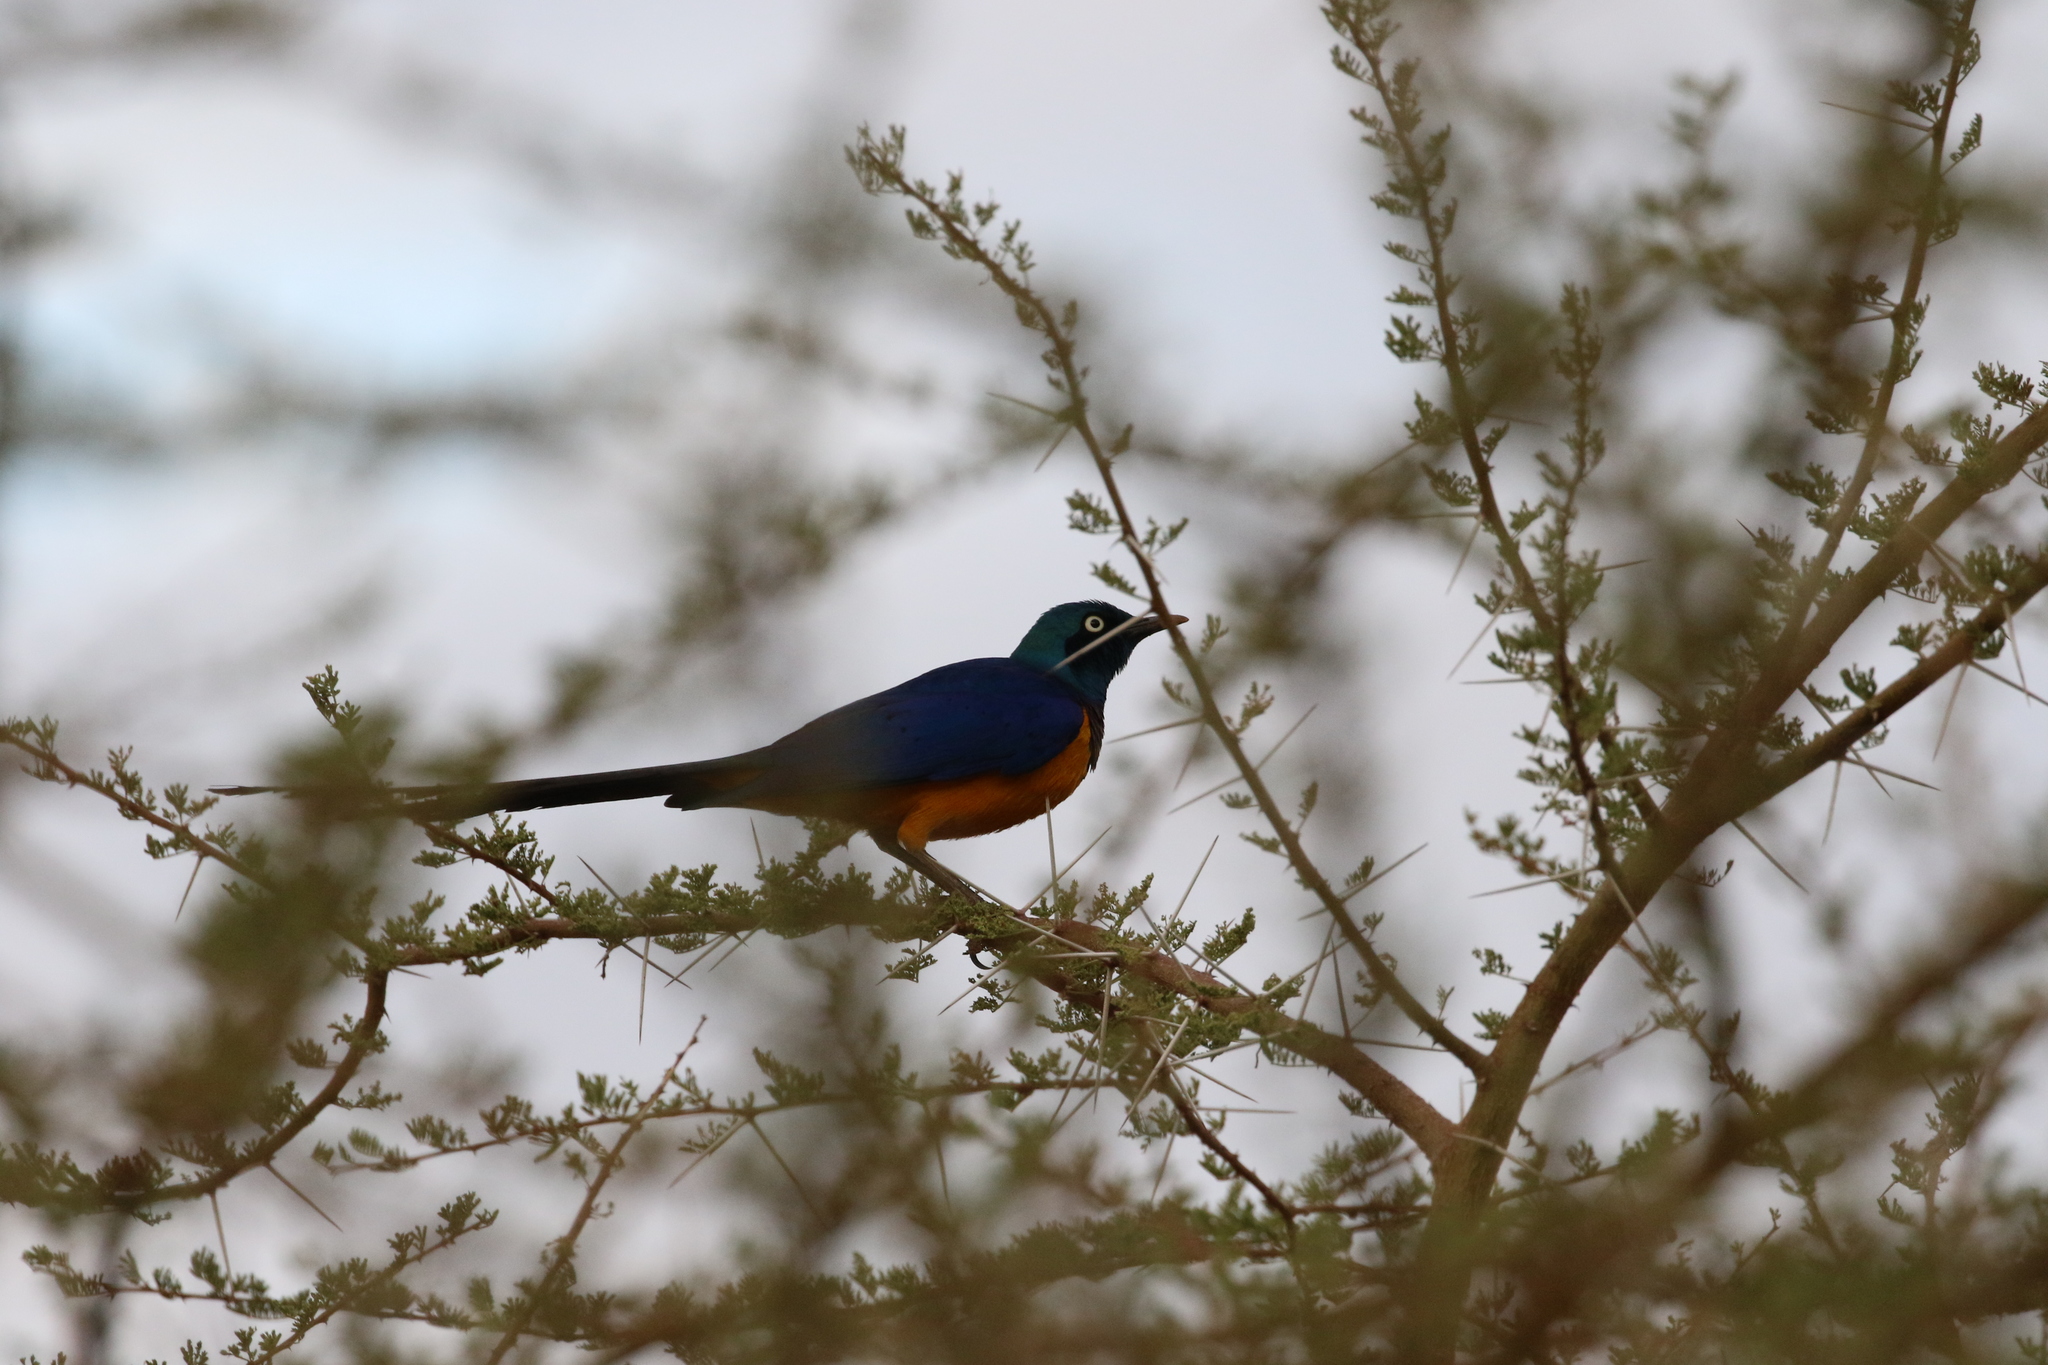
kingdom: Animalia
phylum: Chordata
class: Aves
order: Passeriformes
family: Sturnidae
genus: Lamprotornis
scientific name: Lamprotornis regius
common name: Golden-breasted starling
